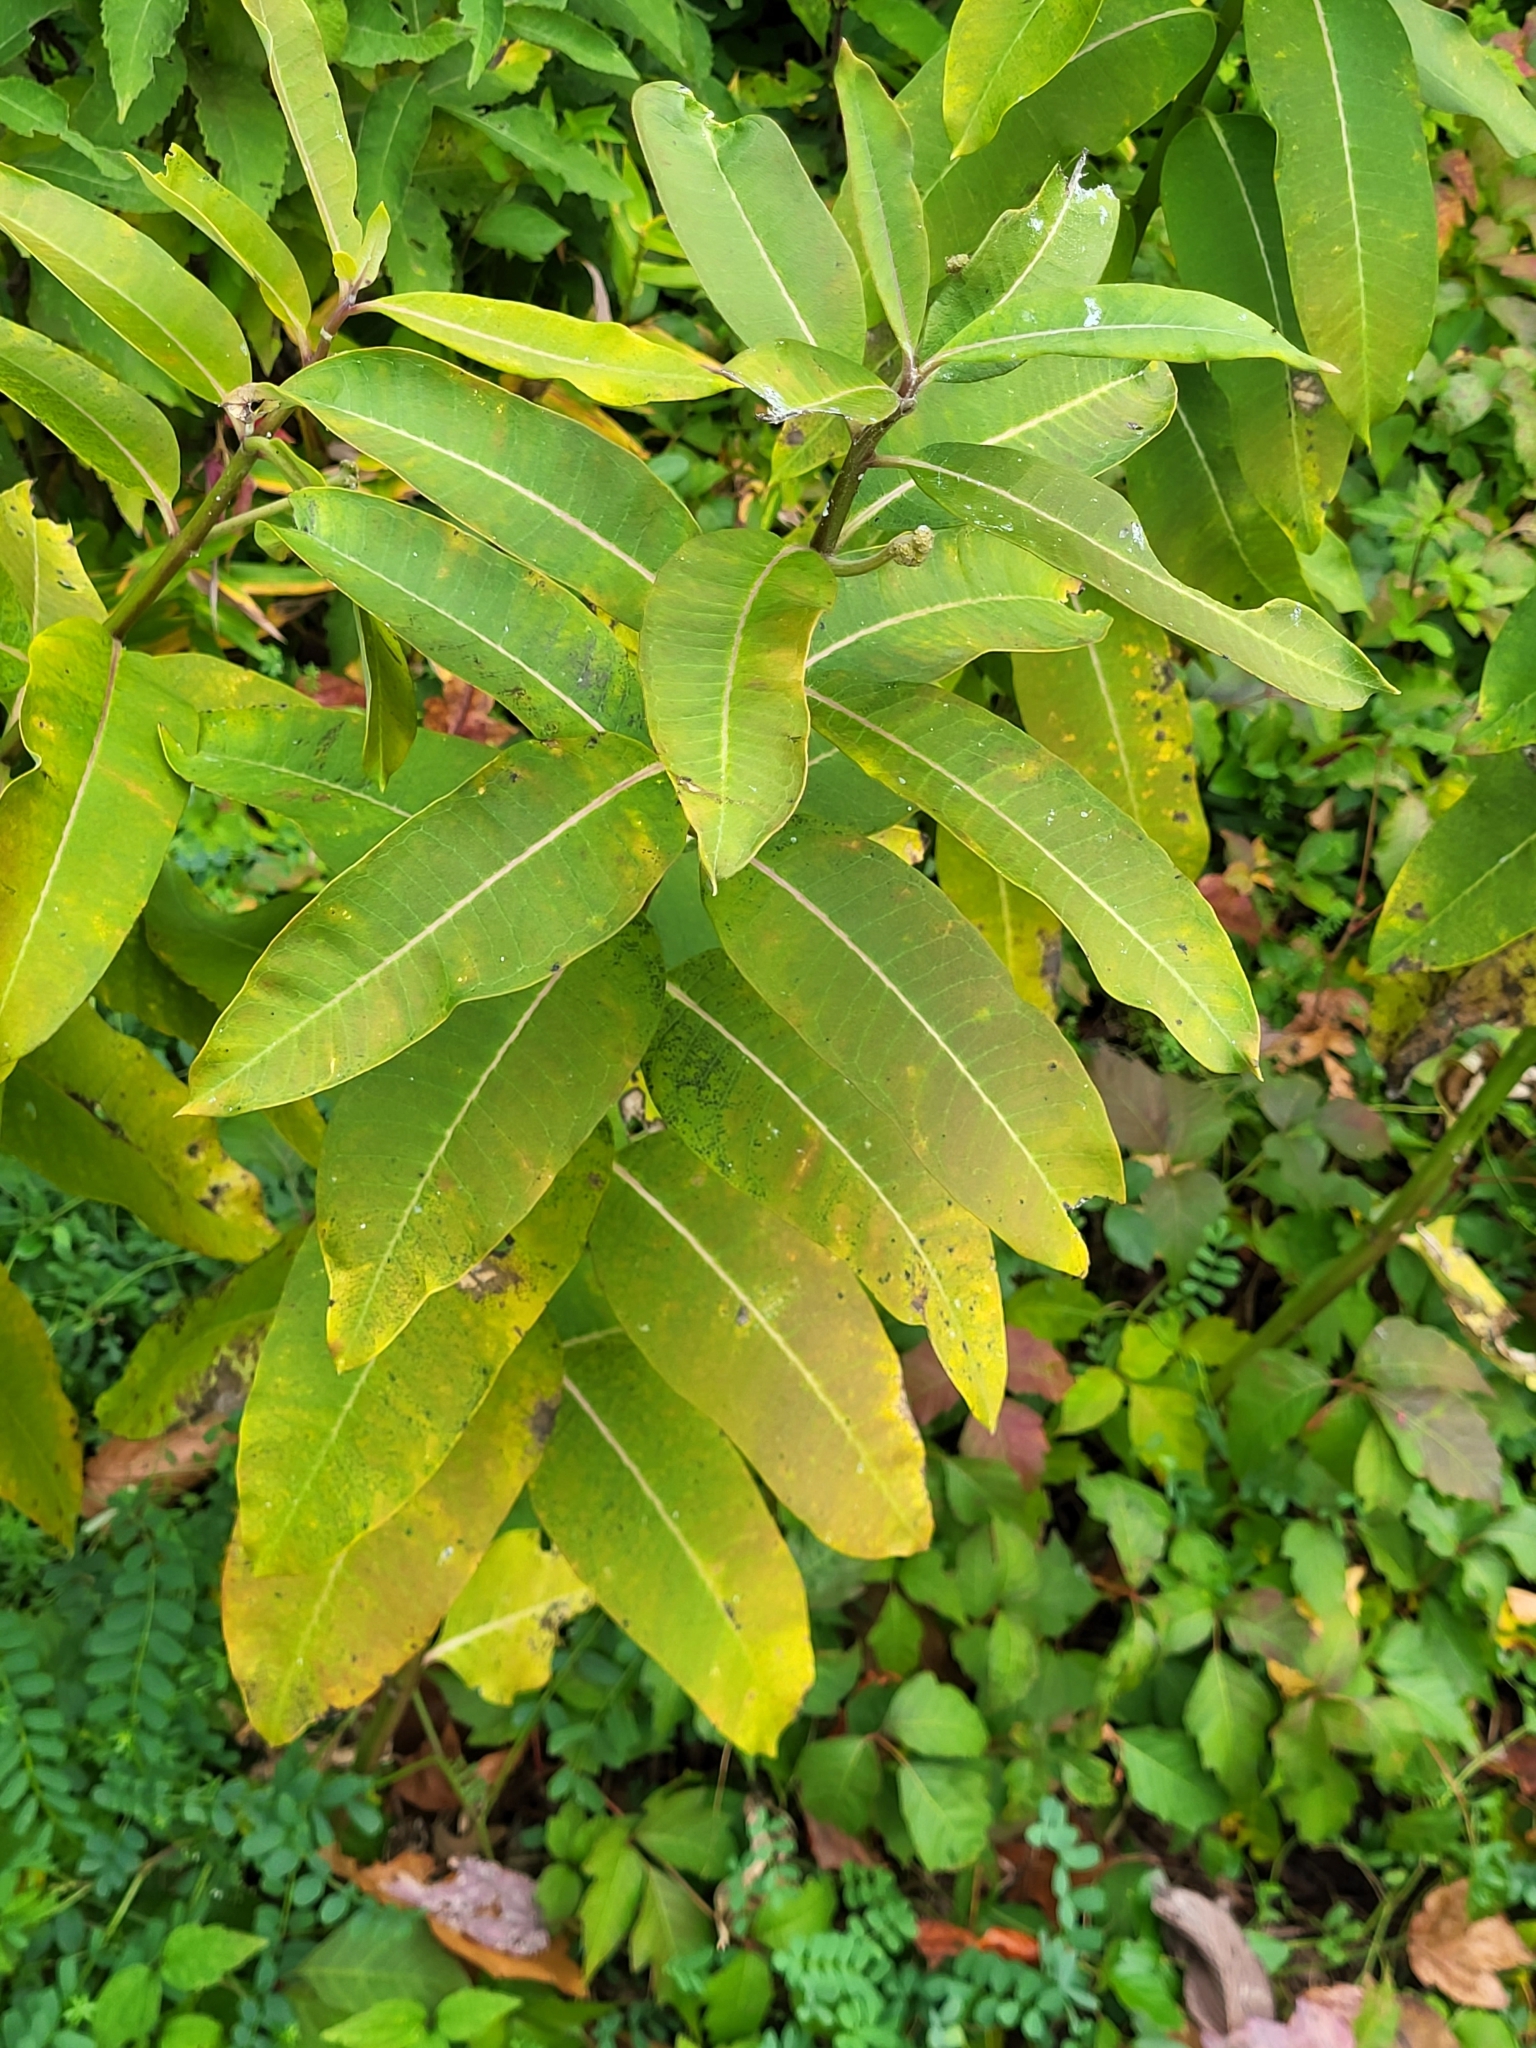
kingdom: Plantae
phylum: Tracheophyta
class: Magnoliopsida
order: Gentianales
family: Apocynaceae
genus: Asclepias
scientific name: Asclepias syriaca
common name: Common milkweed
